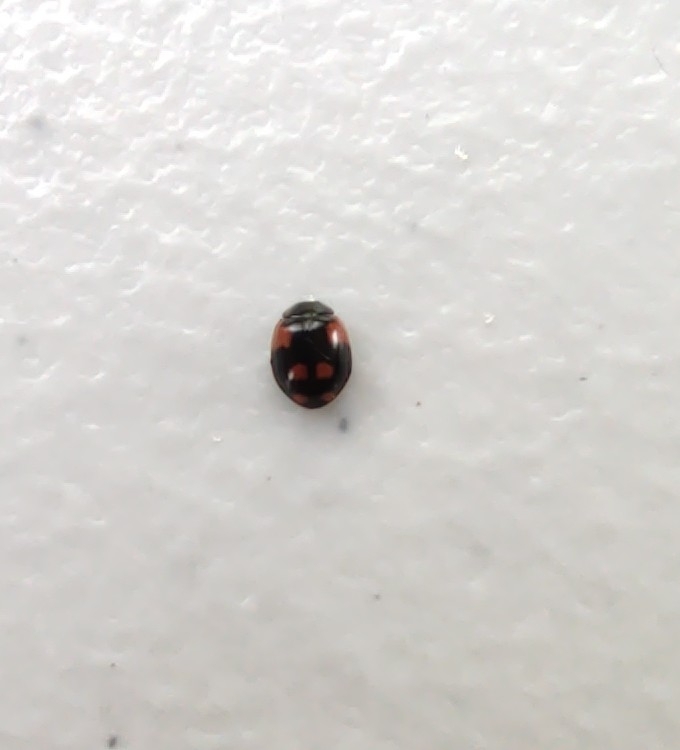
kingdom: Animalia
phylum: Arthropoda
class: Insecta
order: Coleoptera
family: Coccinellidae
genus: Adalia
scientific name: Adalia bipunctata
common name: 2-spot ladybird
